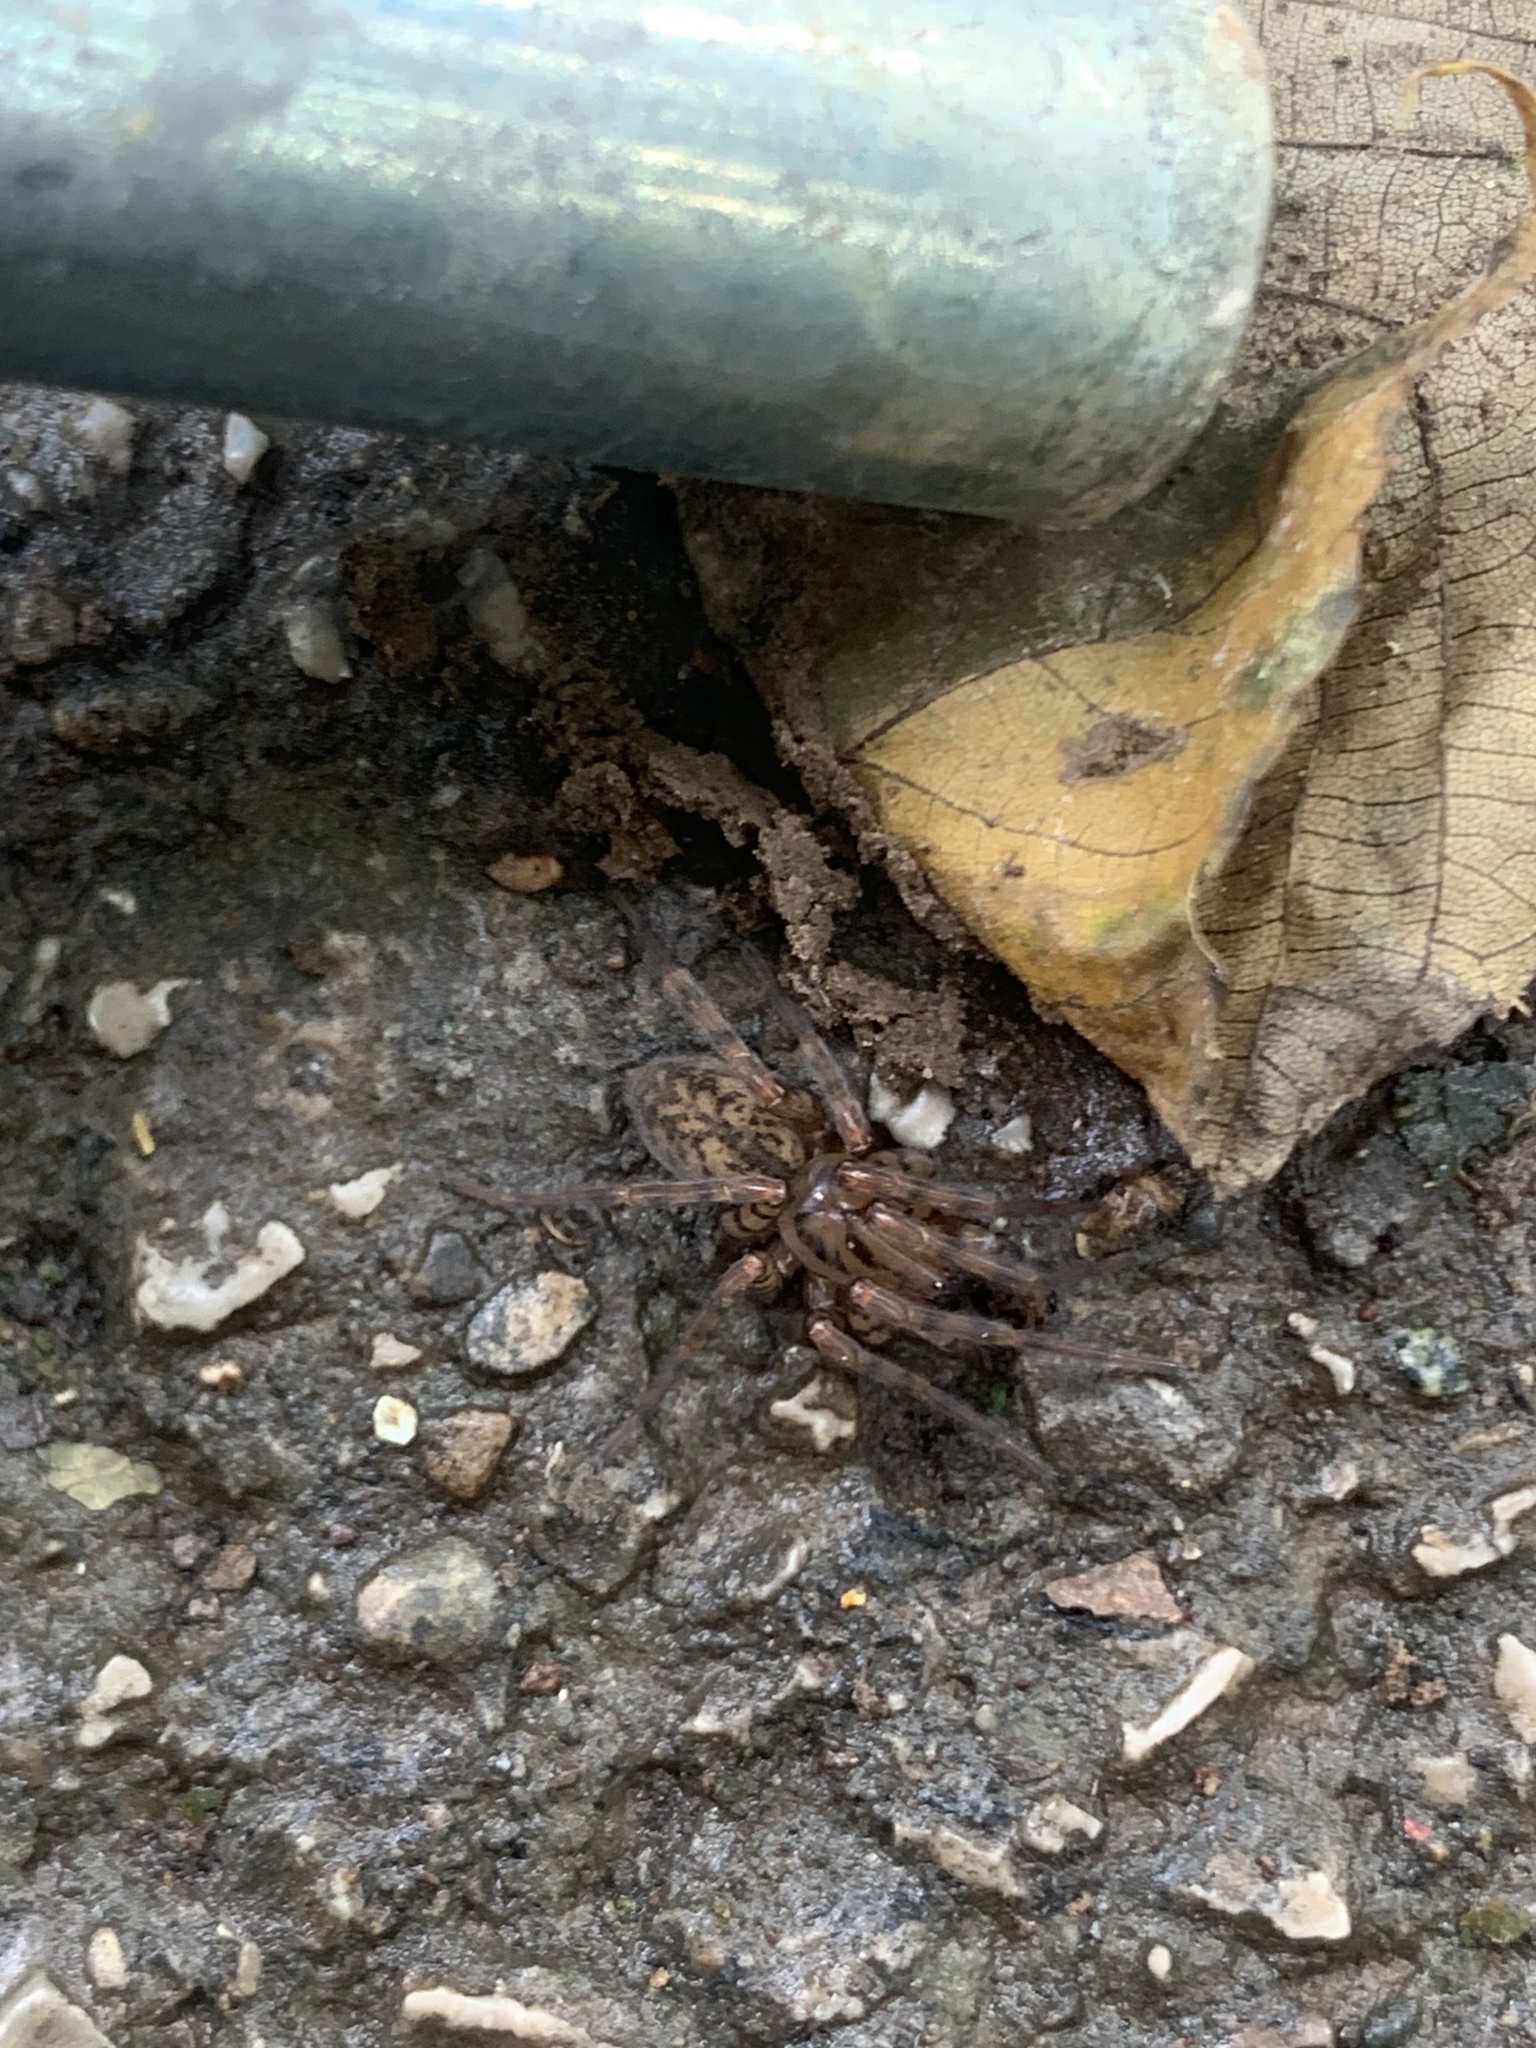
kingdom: Animalia
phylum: Arthropoda
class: Arachnida
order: Araneae
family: Agelenidae
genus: Coras
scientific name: Coras
